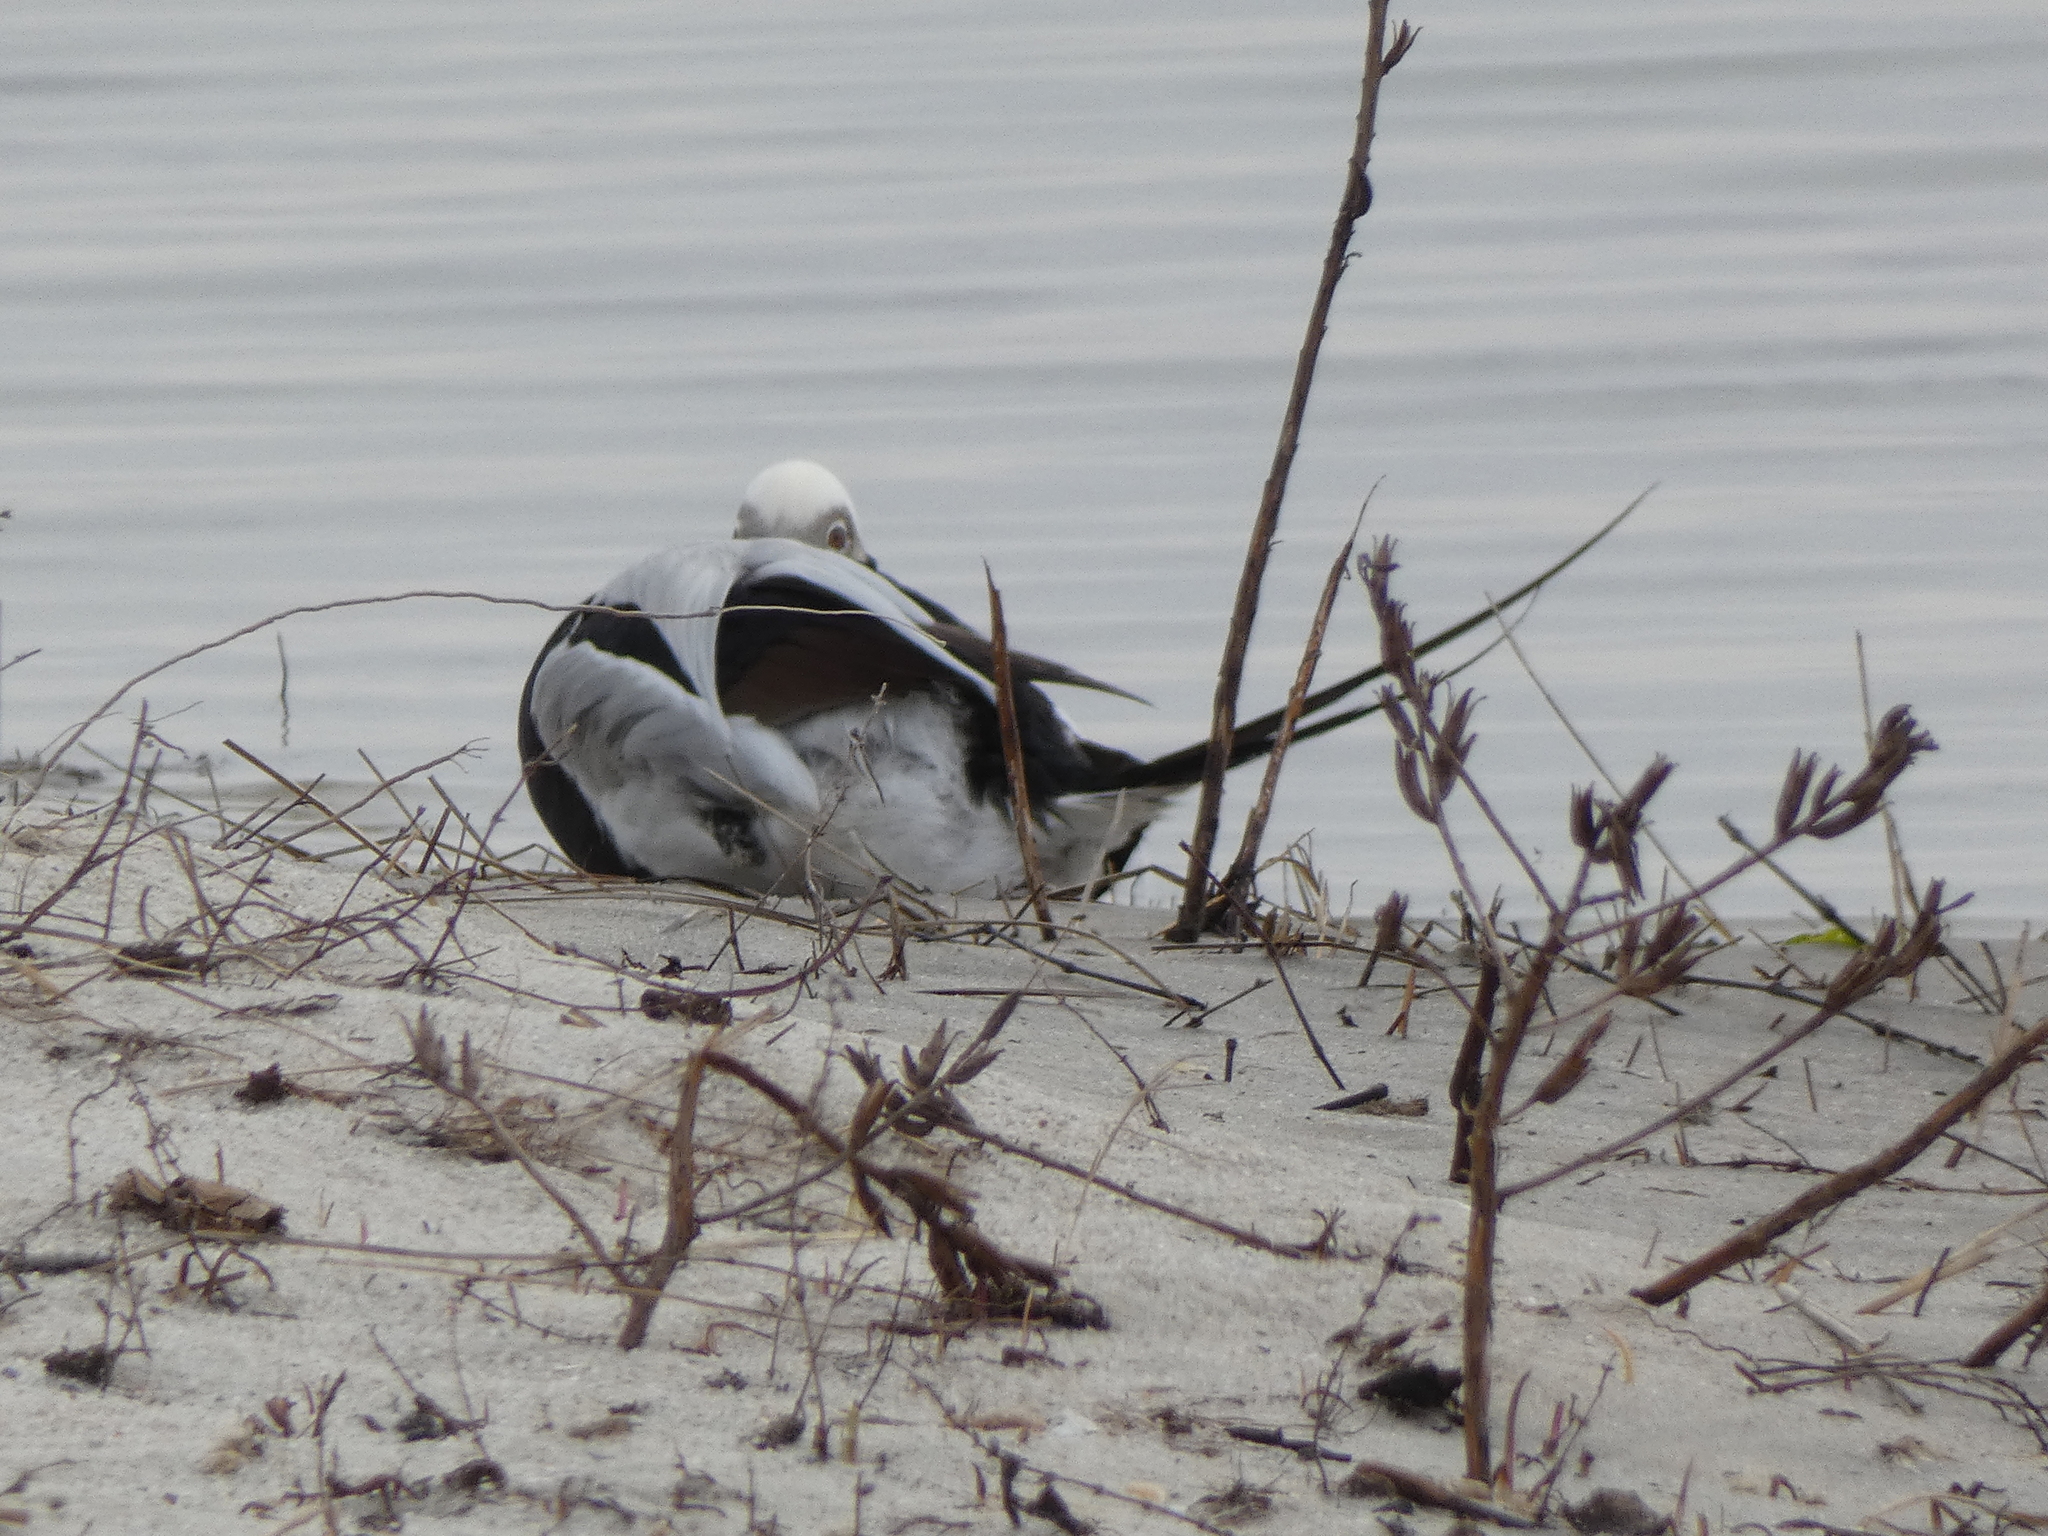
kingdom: Animalia
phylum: Chordata
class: Aves
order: Anseriformes
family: Anatidae
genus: Clangula
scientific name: Clangula hyemalis
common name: Long-tailed duck
